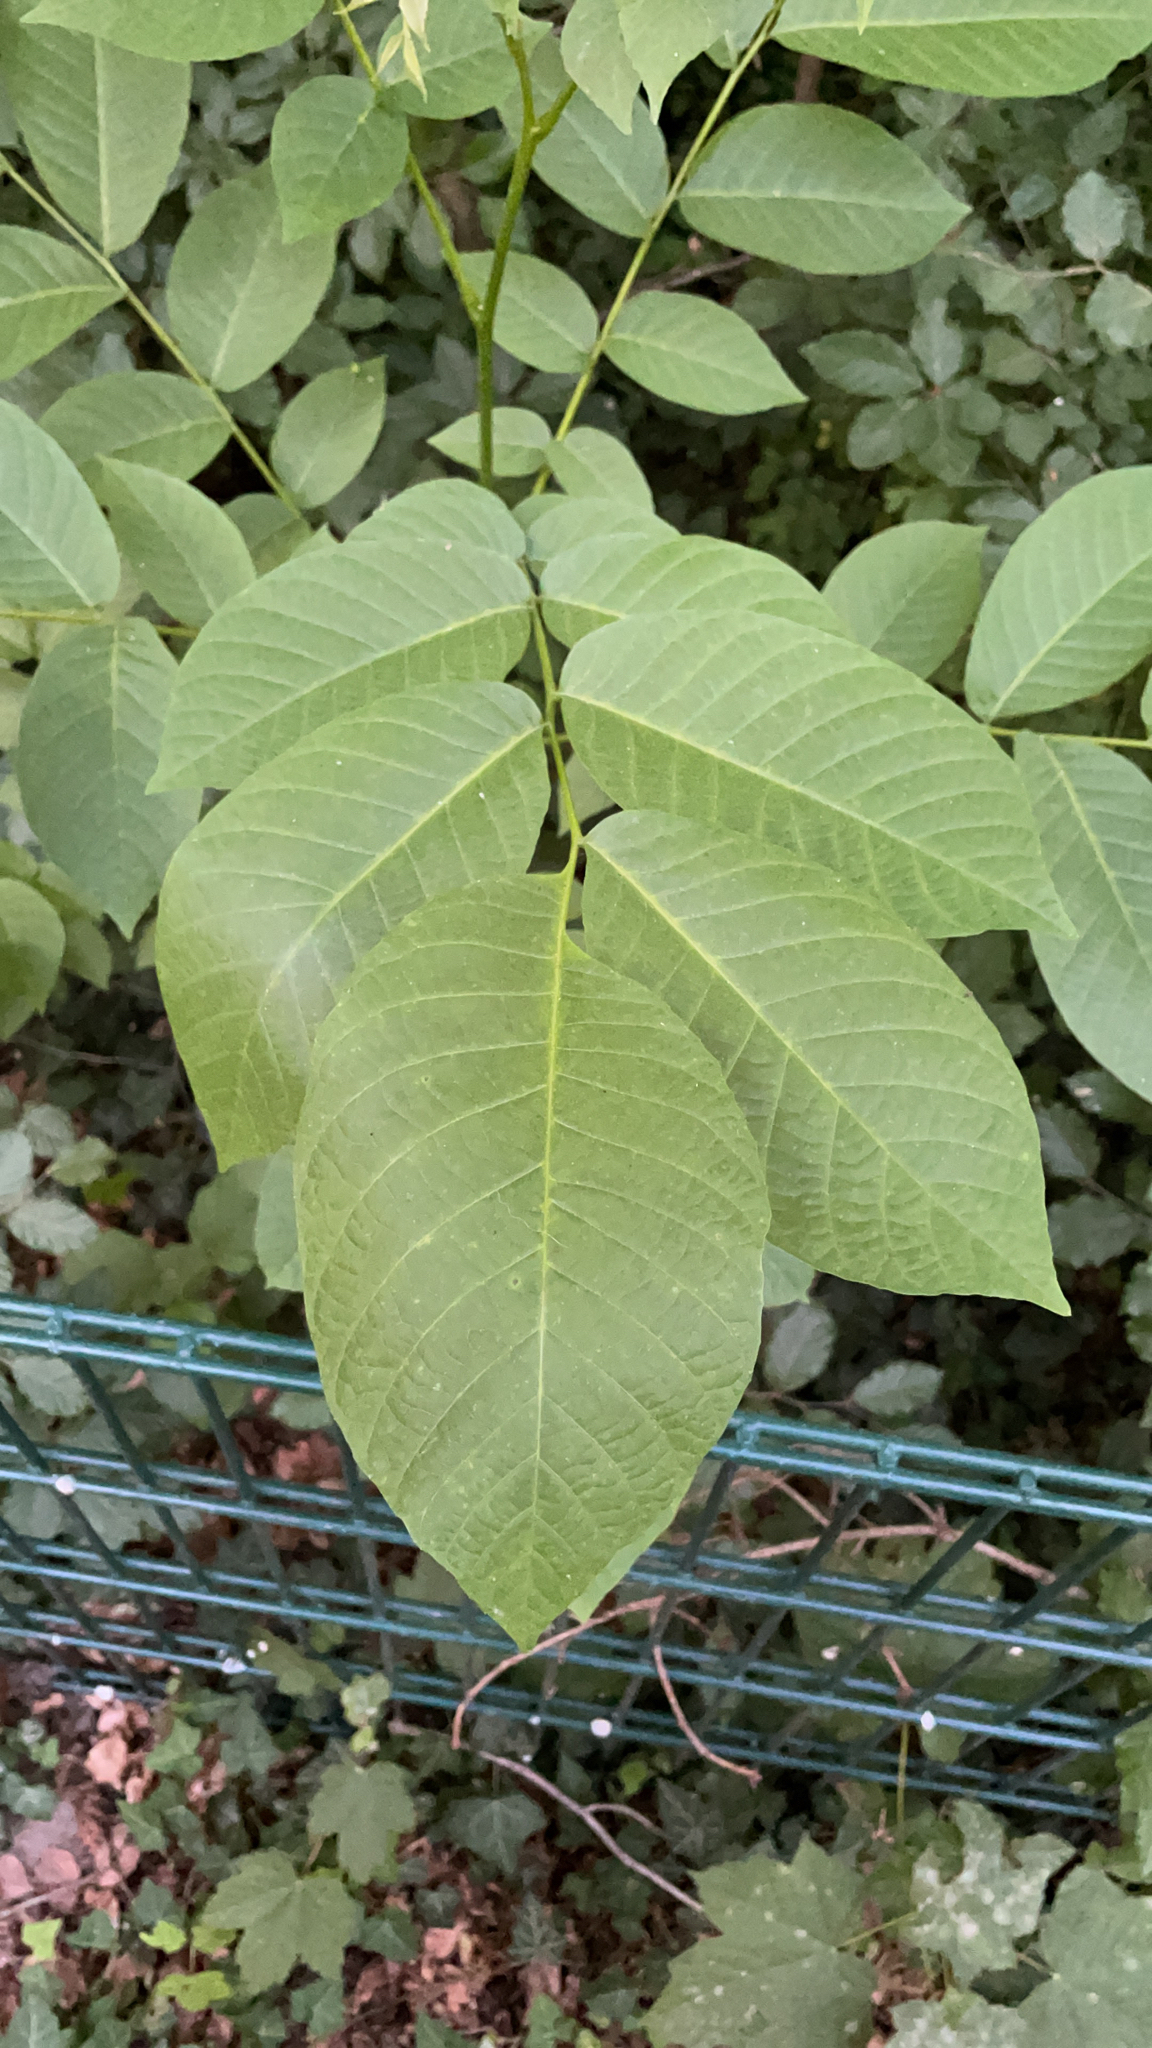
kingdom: Plantae
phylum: Tracheophyta
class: Magnoliopsida
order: Fagales
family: Juglandaceae
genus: Juglans
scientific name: Juglans regia
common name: Walnut
